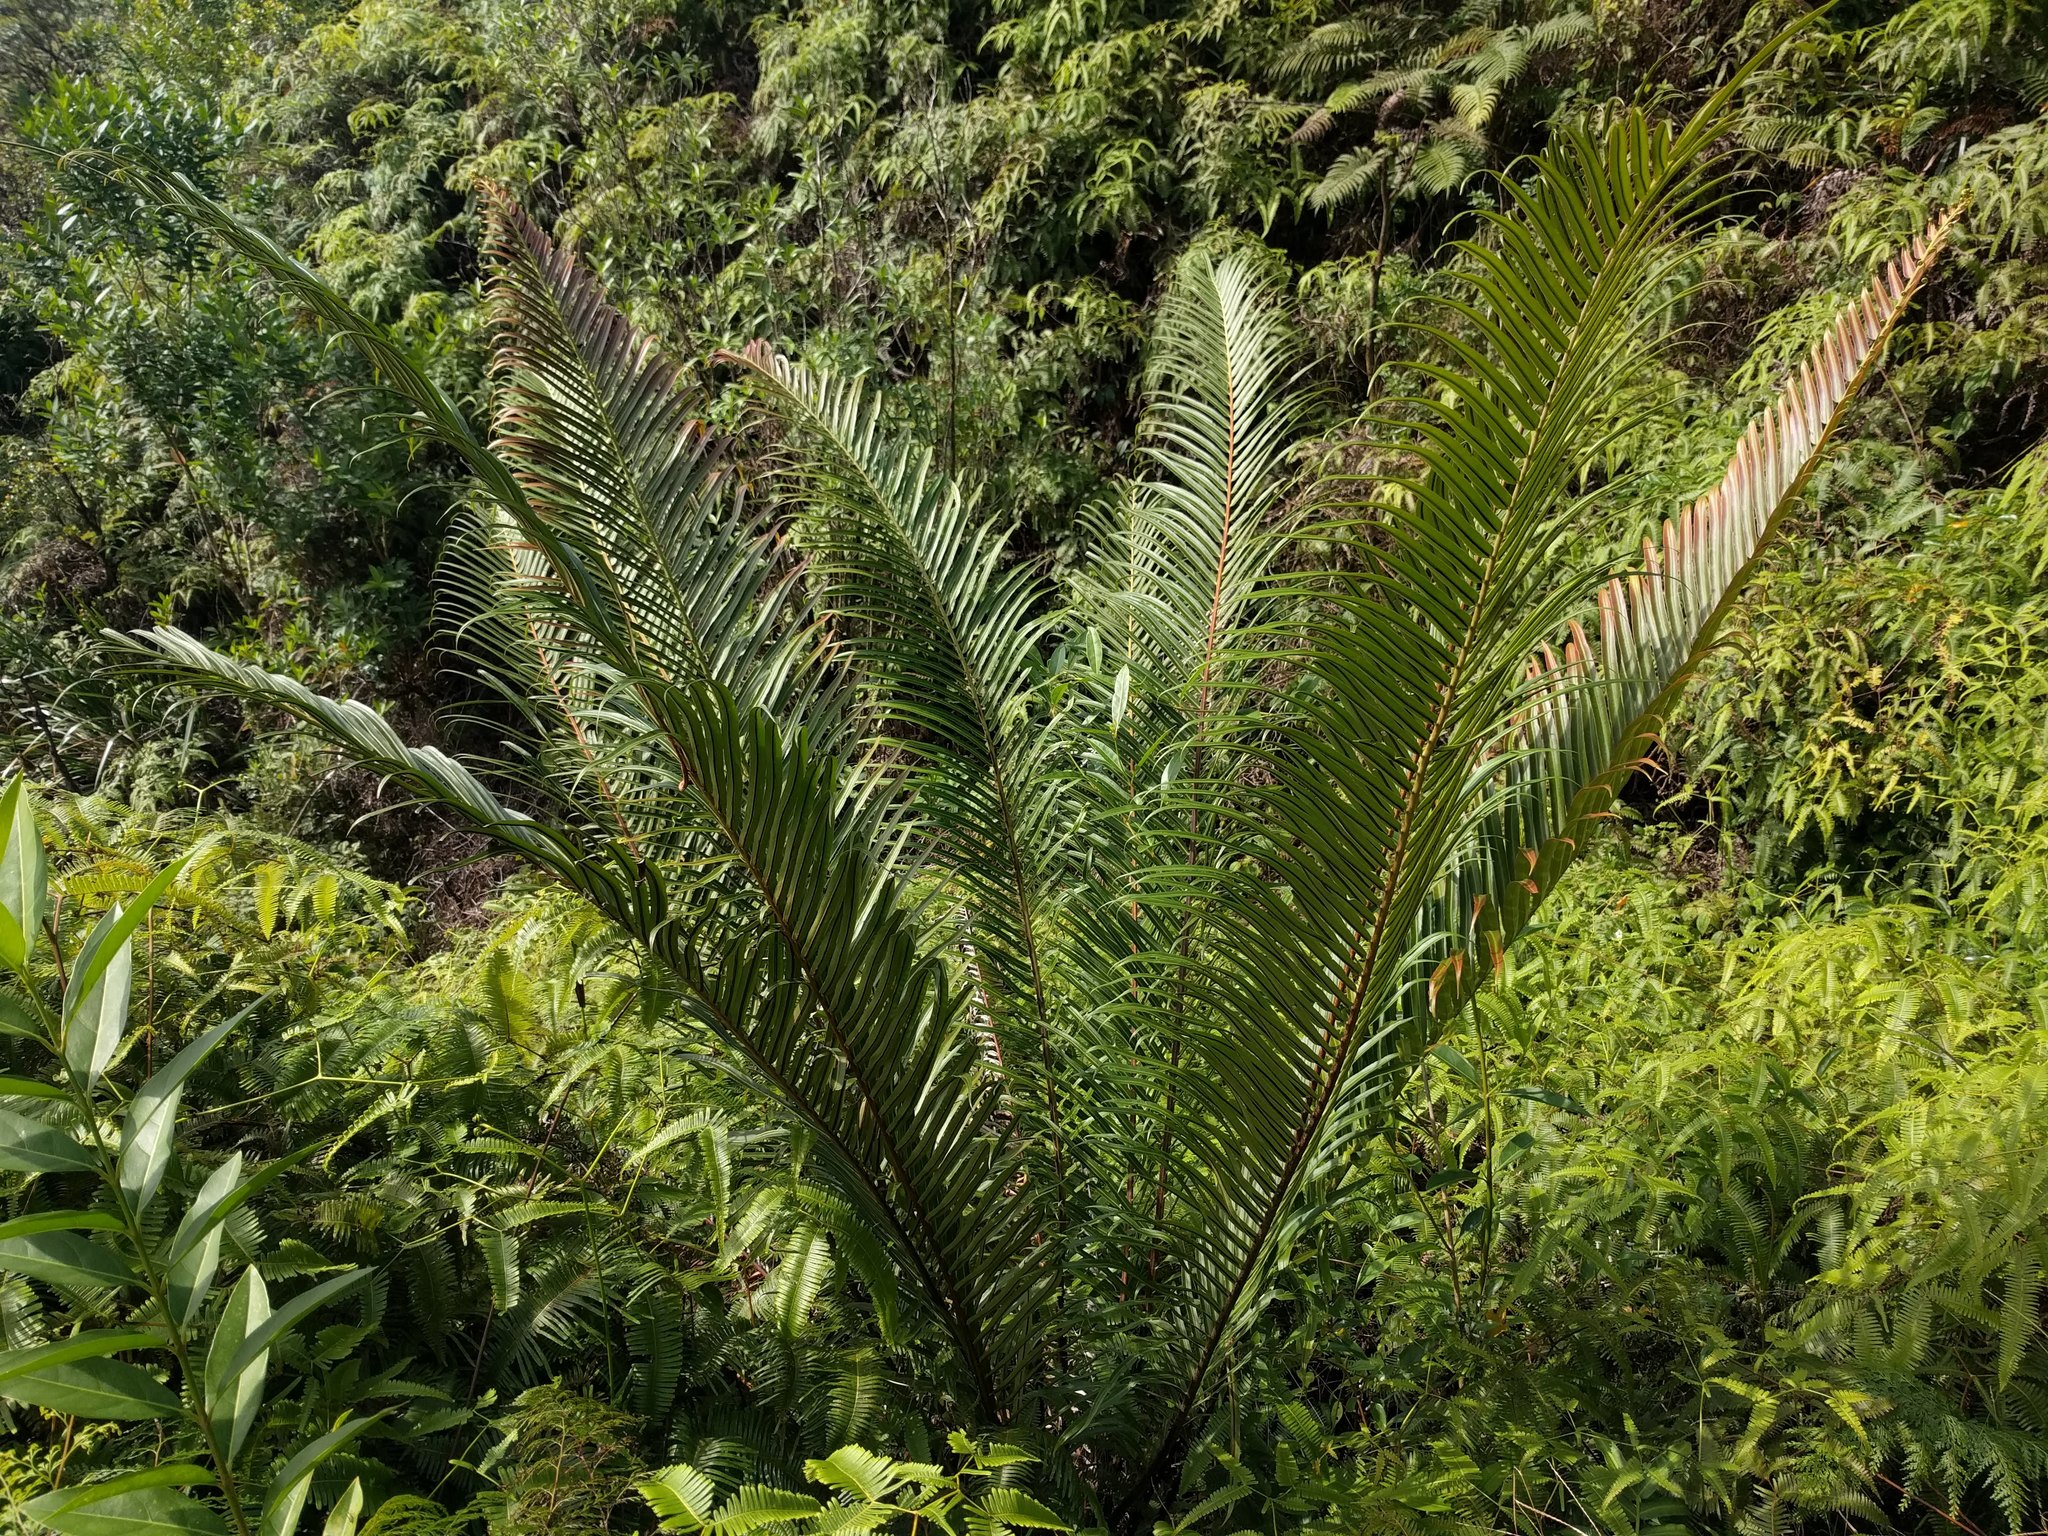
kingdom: Plantae
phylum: Tracheophyta
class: Polypodiopsida
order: Polypodiales
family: Blechnaceae
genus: Blechnopsis
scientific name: Blechnopsis orientalis
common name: Oriental blechnum
